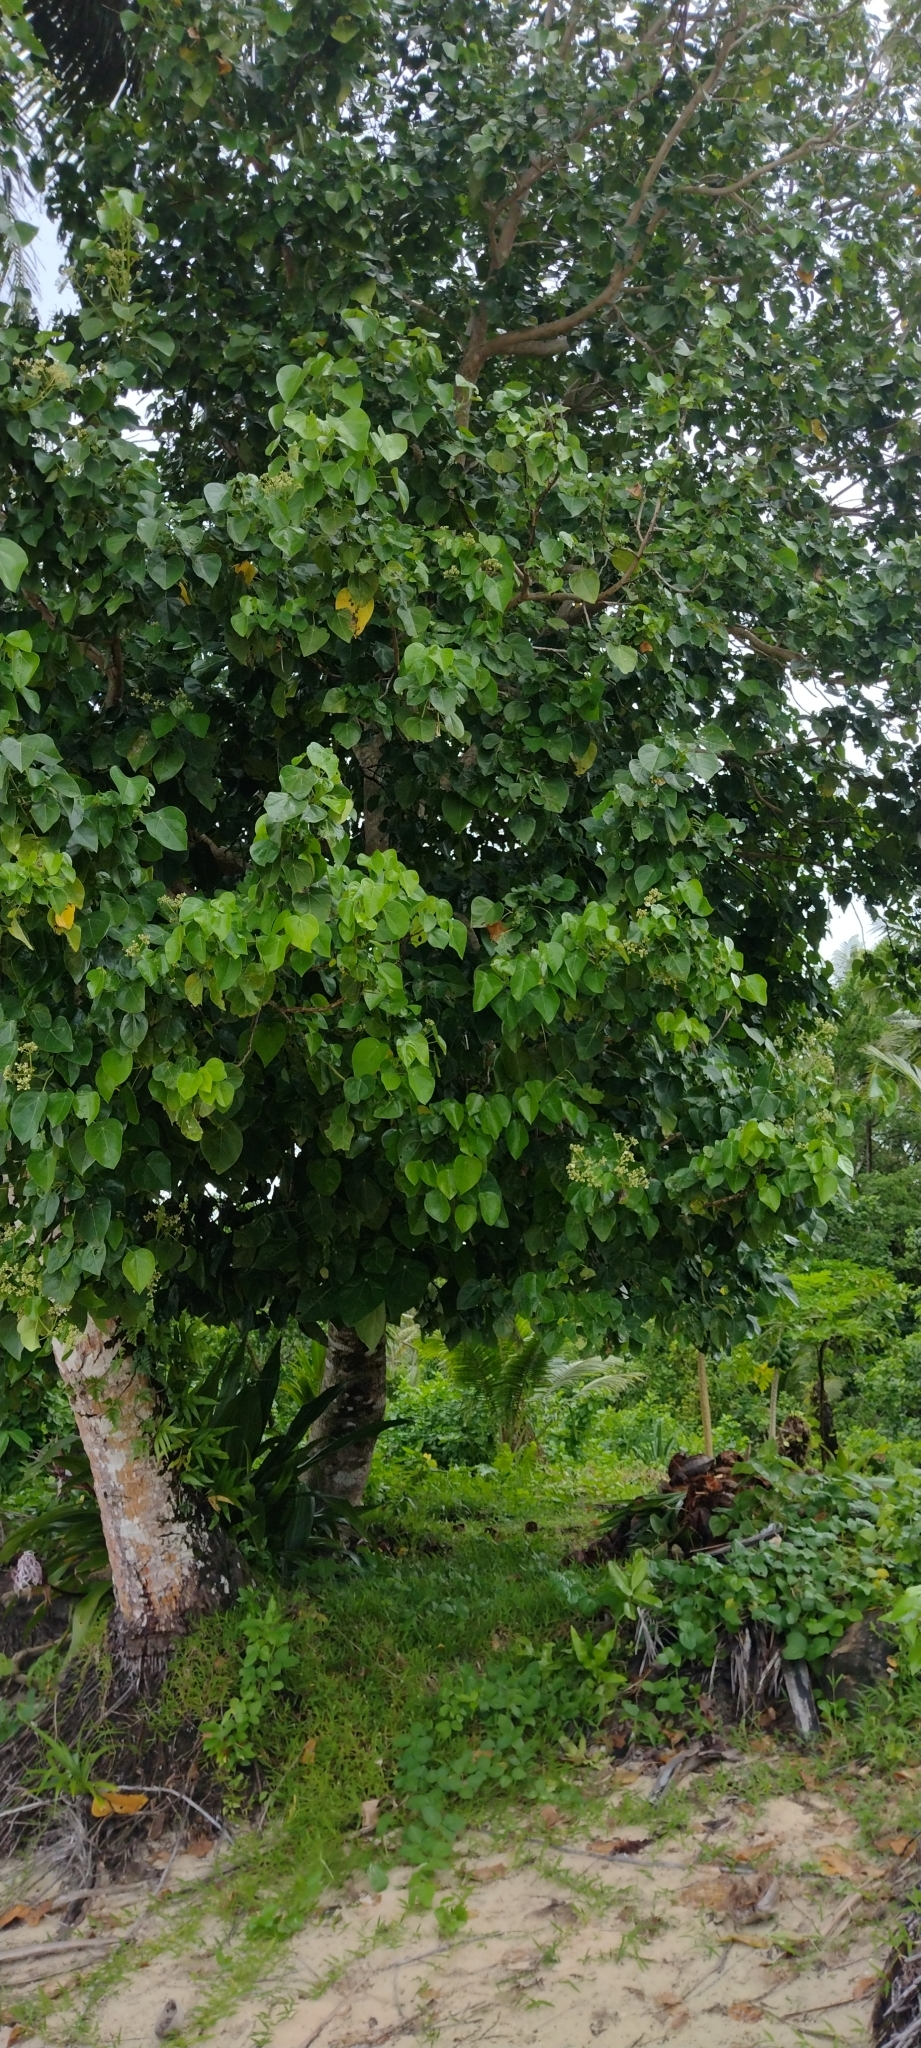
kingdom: Plantae
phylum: Tracheophyta
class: Magnoliopsida
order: Laurales
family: Hernandiaceae
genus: Hernandia
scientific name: Hernandia nymphaeifolia
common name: Sea hearse
